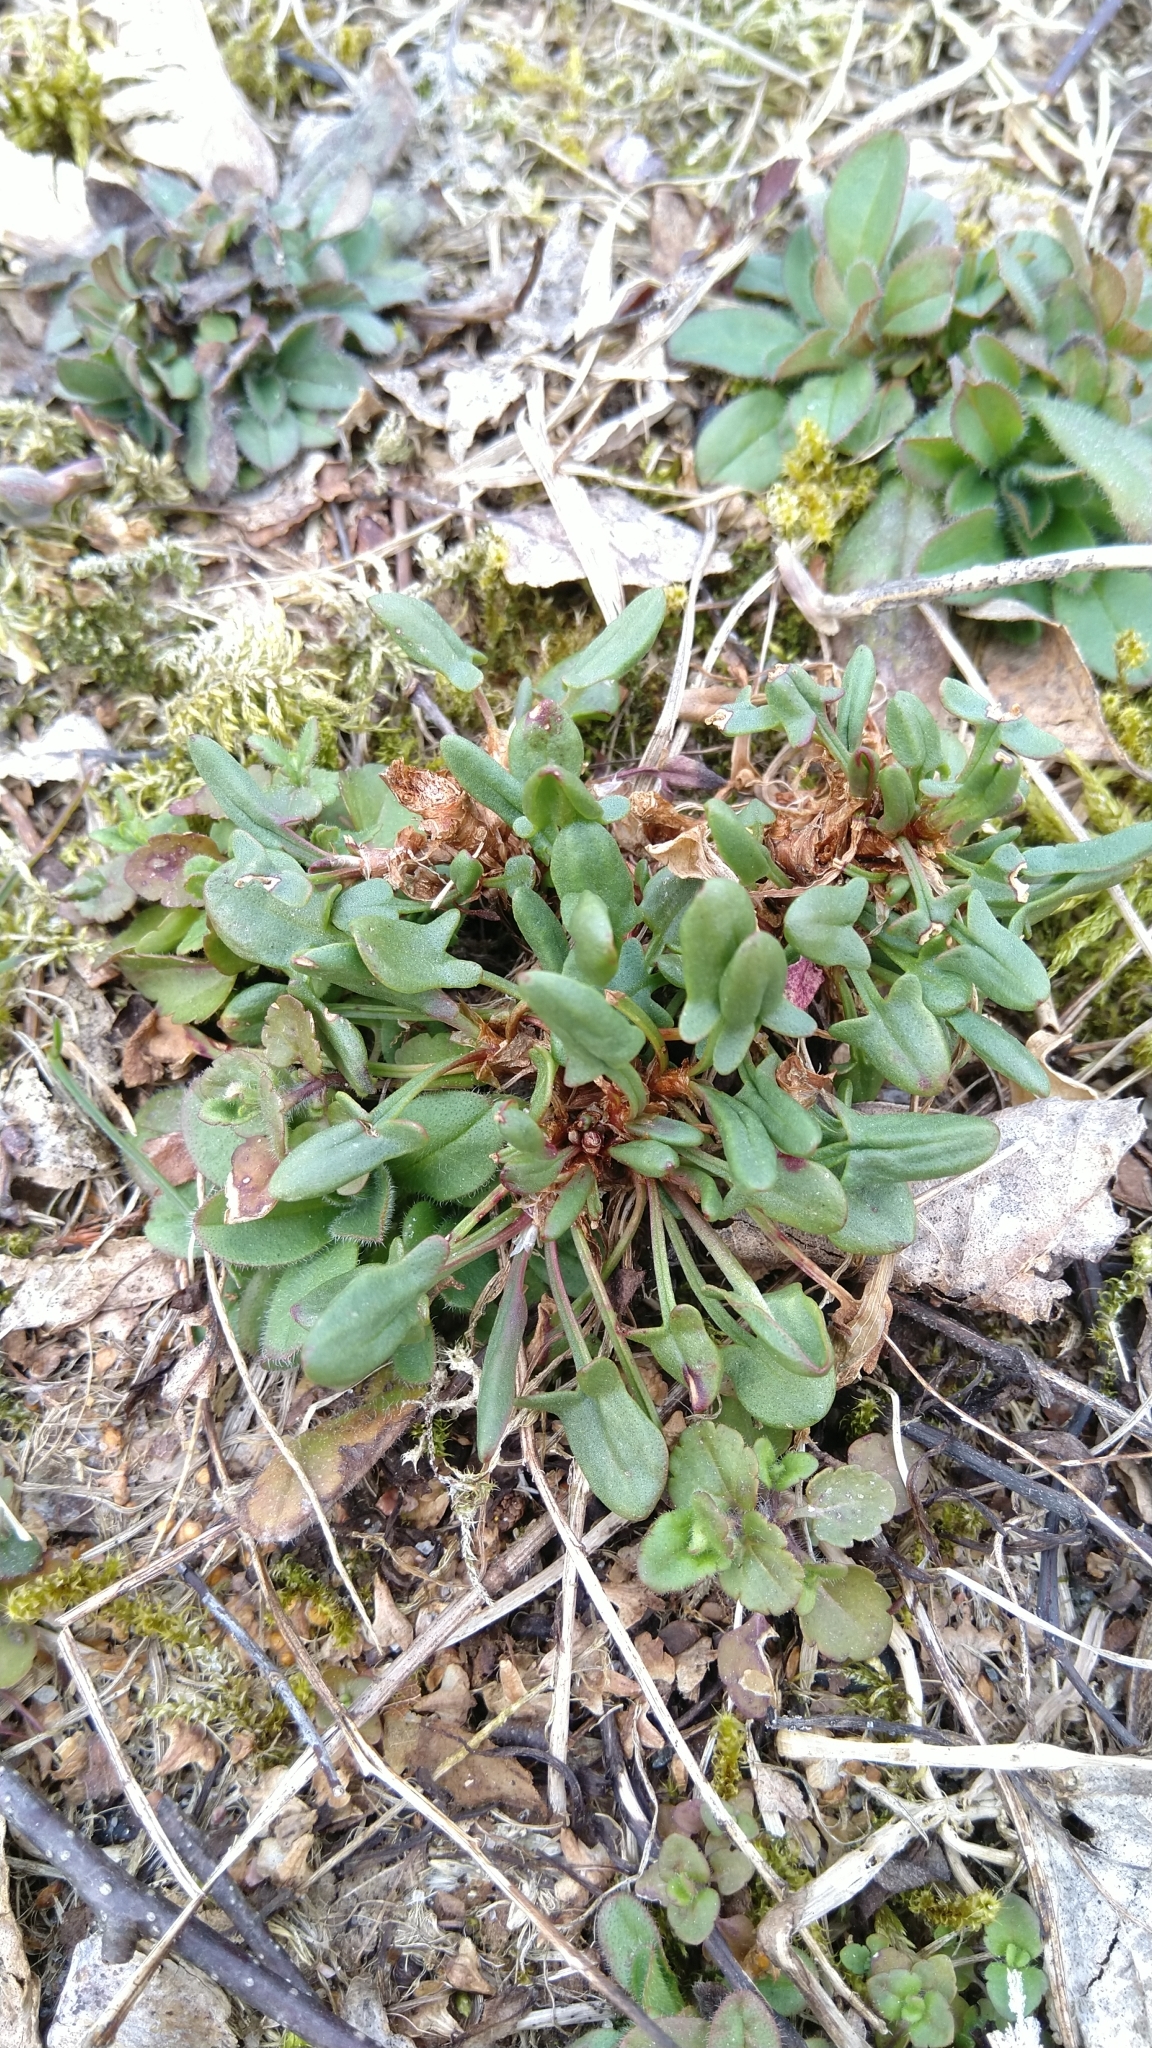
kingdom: Plantae
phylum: Tracheophyta
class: Magnoliopsida
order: Caryophyllales
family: Polygonaceae
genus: Rumex
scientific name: Rumex acetosa
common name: Garden sorrel
